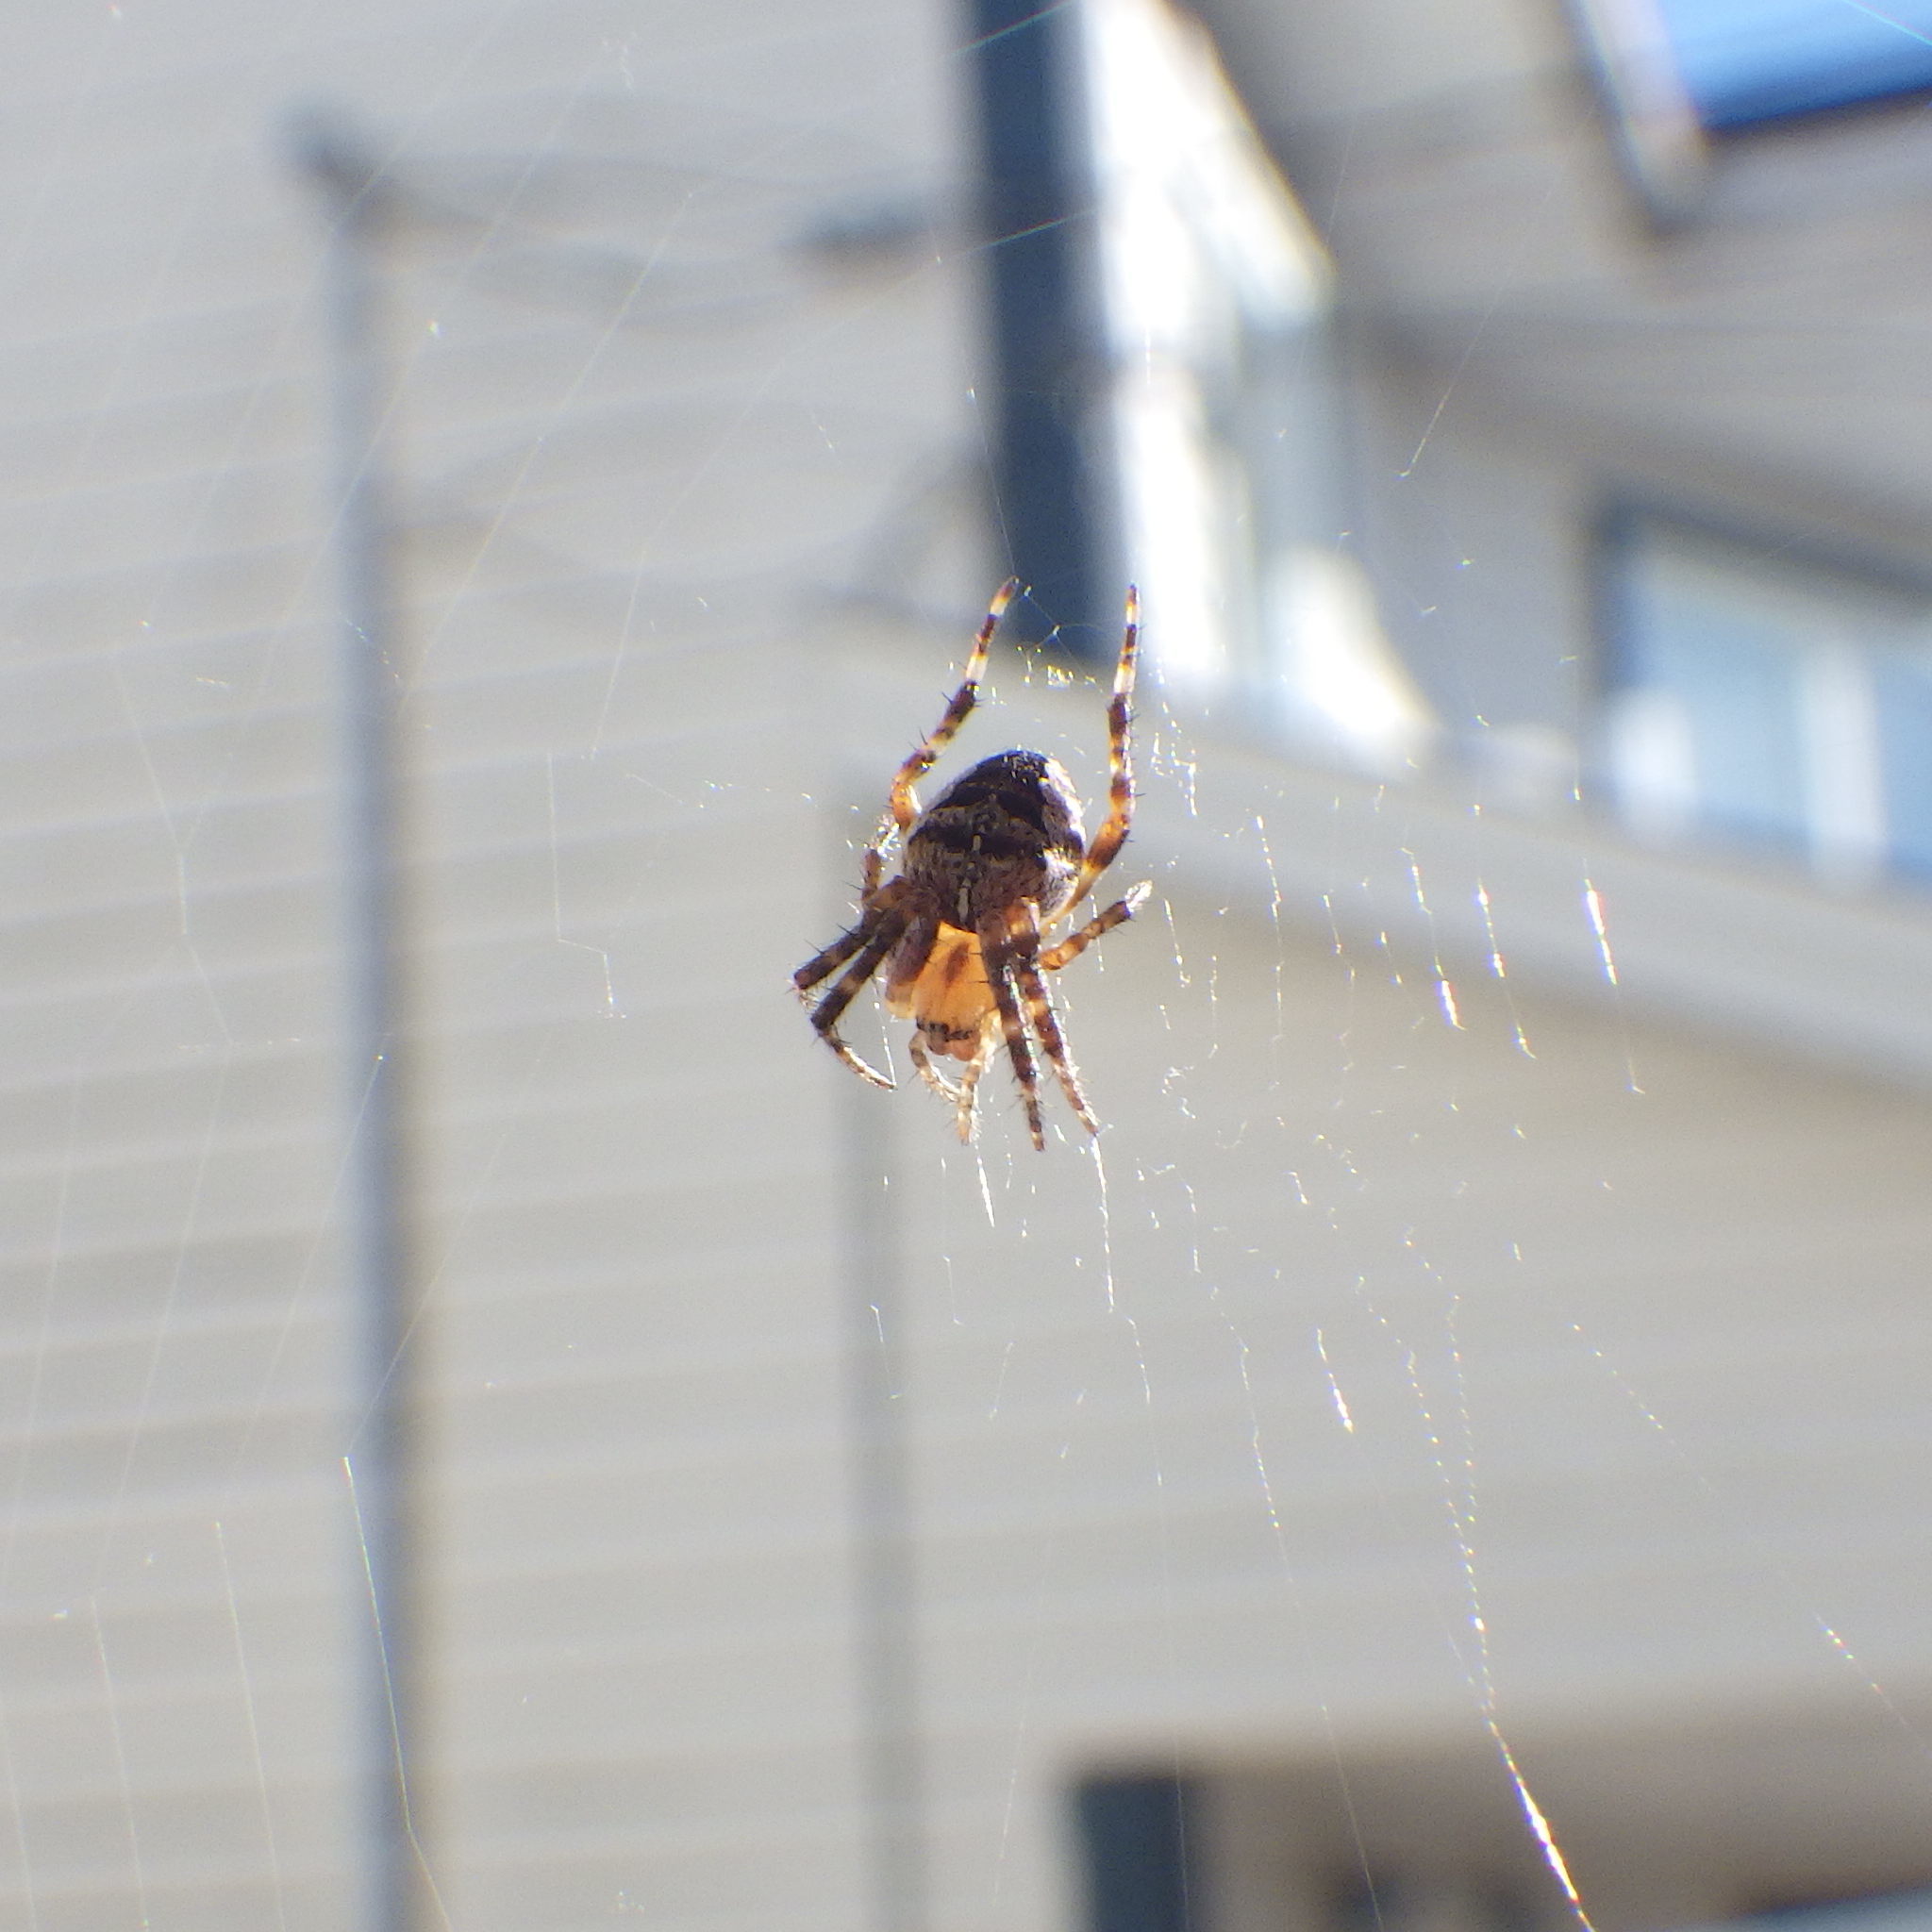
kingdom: Animalia
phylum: Arthropoda
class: Arachnida
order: Araneae
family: Araneidae
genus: Araneus
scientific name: Araneus diadematus
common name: Cross orbweaver
